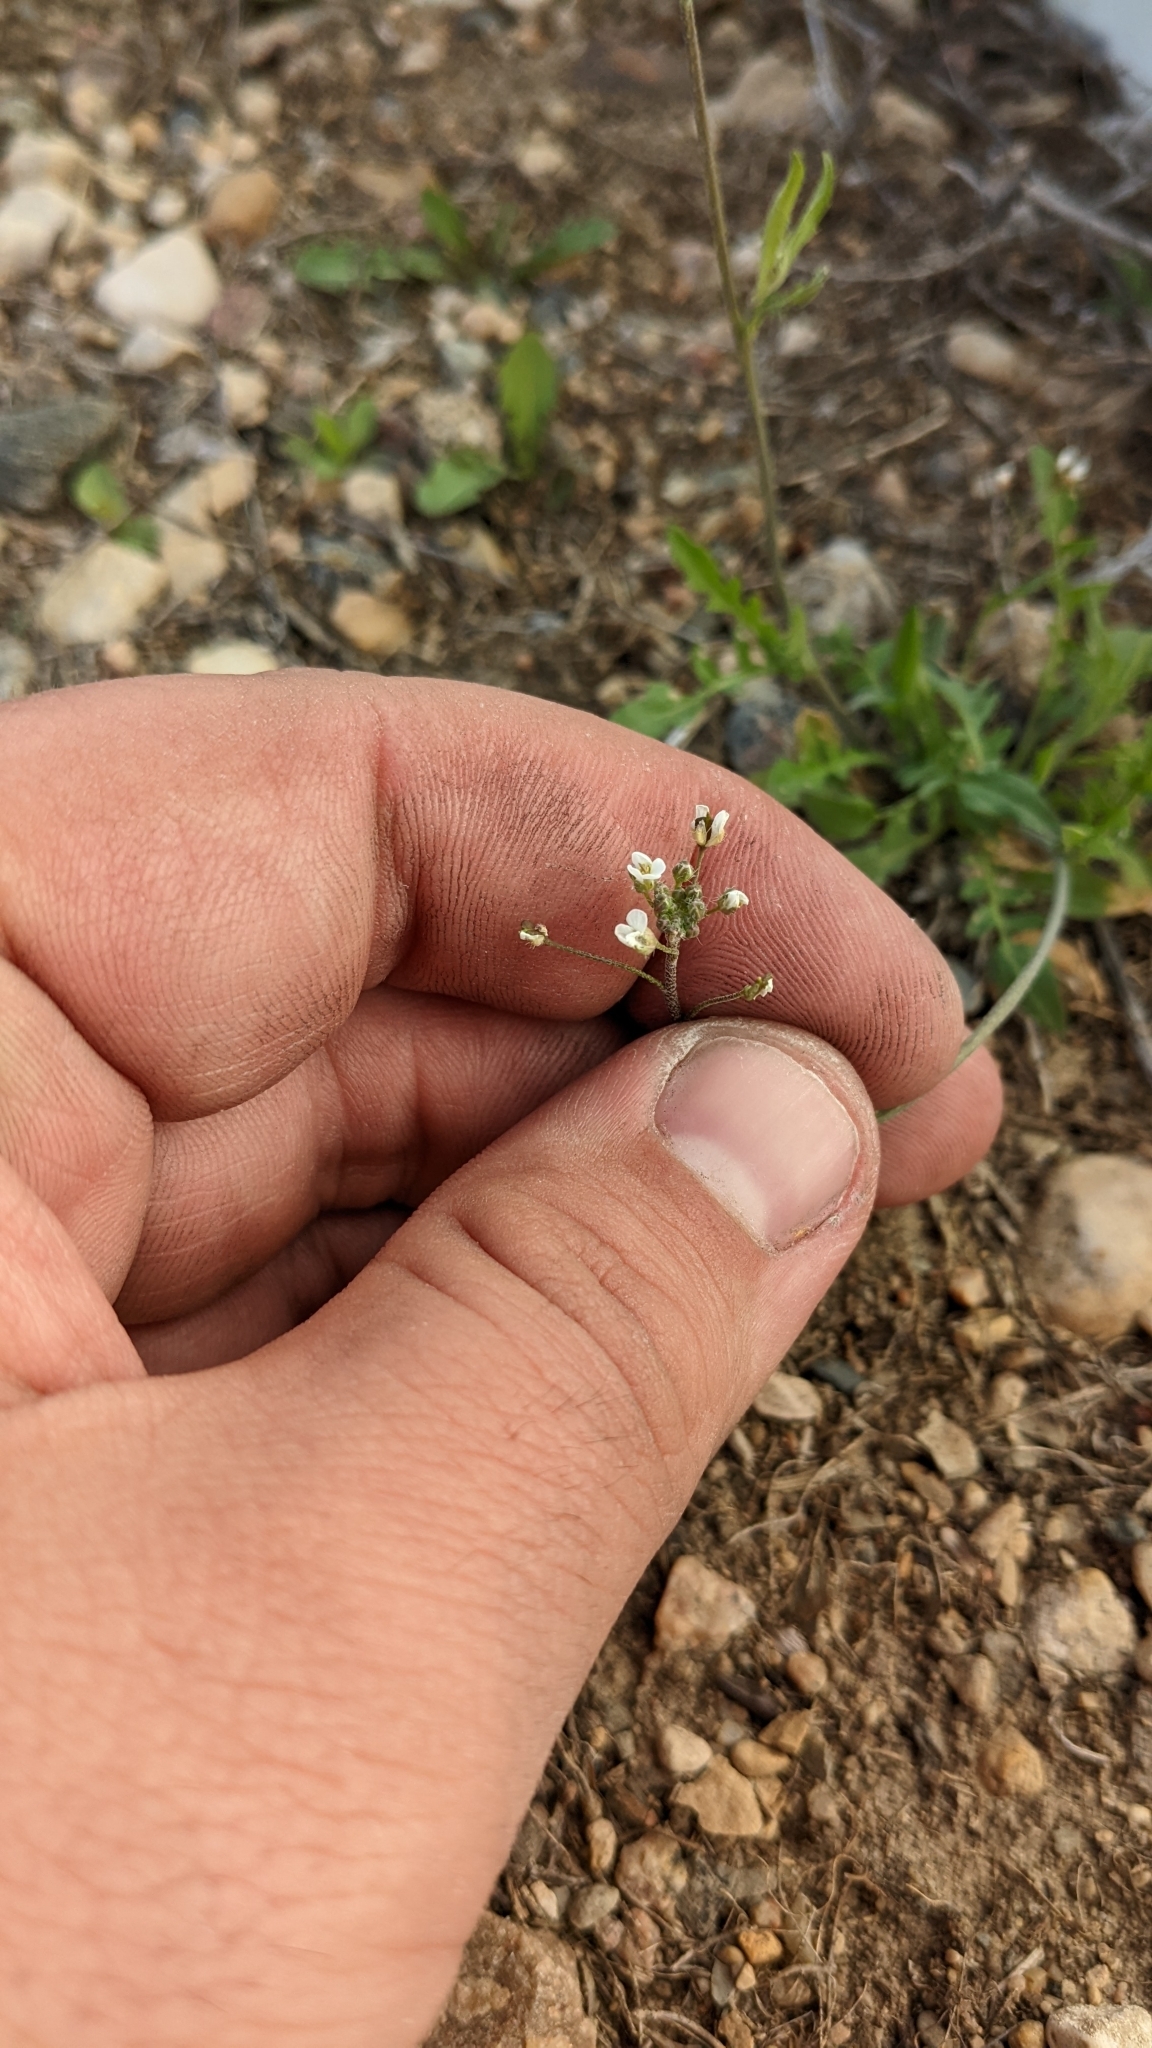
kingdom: Plantae
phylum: Tracheophyta
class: Magnoliopsida
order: Brassicales
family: Brassicaceae
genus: Capsella
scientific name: Capsella bursa-pastoris
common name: Shepherd's purse
